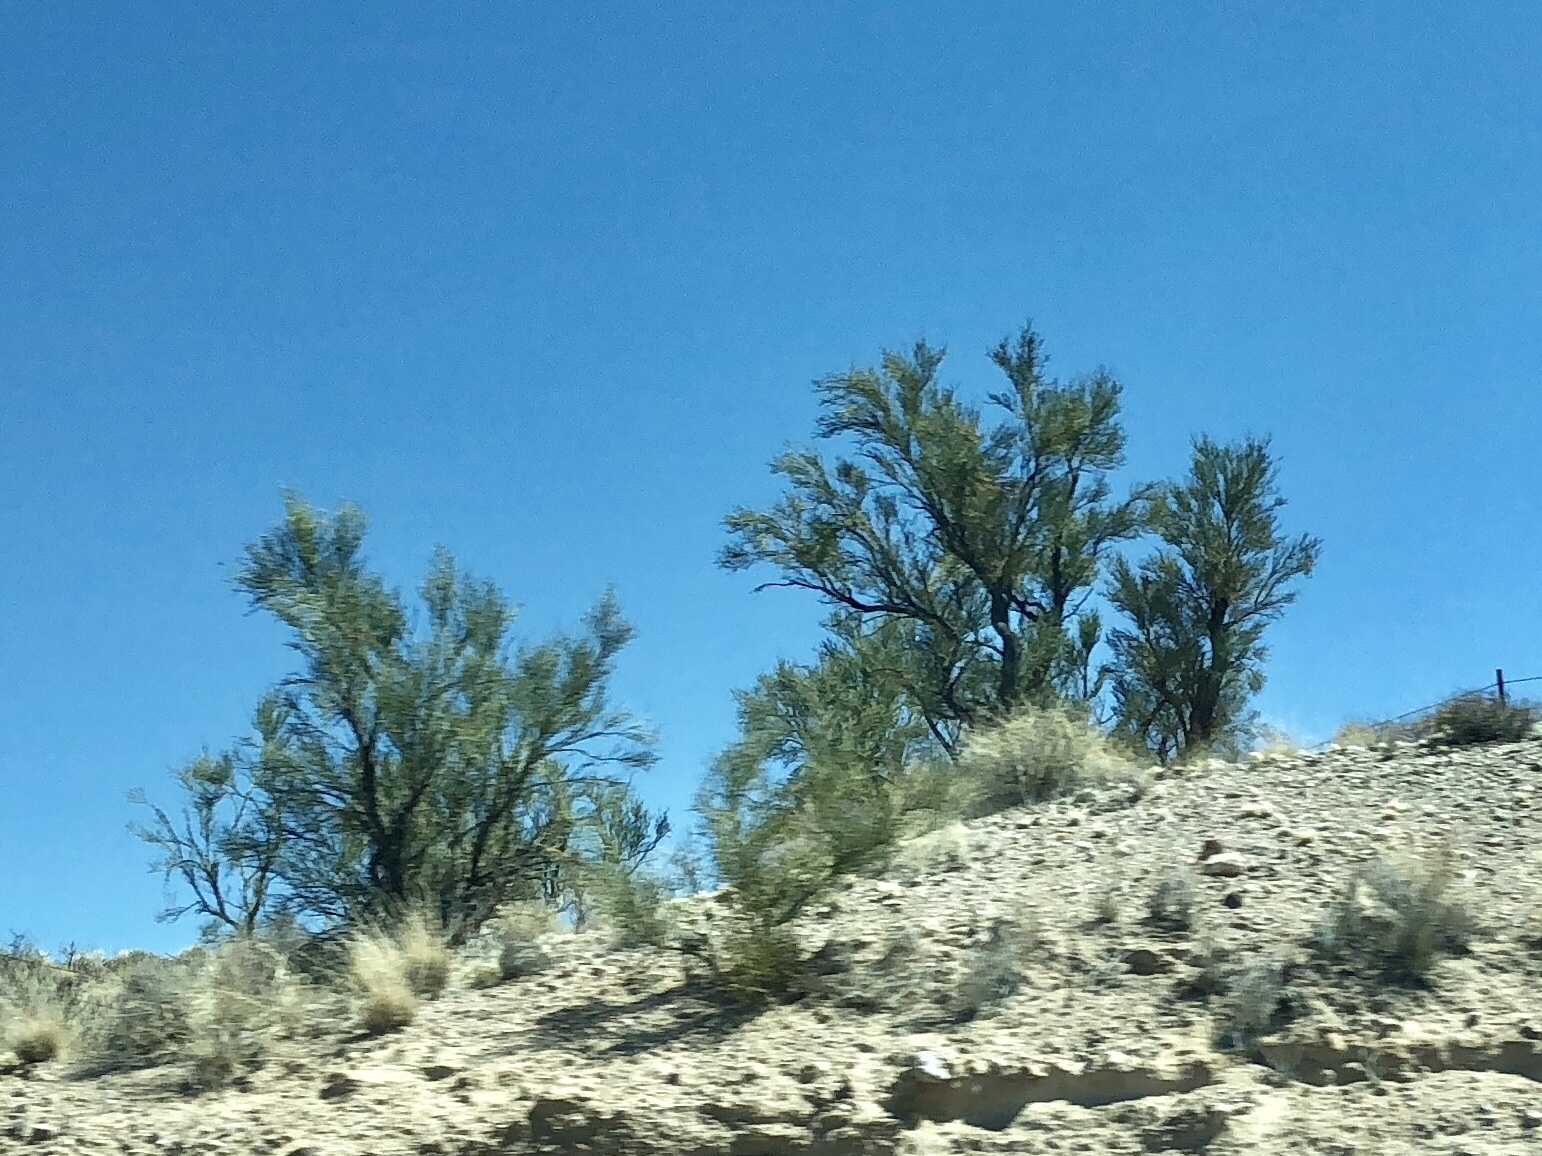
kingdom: Plantae
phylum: Tracheophyta
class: Magnoliopsida
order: Celastrales
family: Celastraceae
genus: Canotia
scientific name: Canotia holacantha
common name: Crucifixion thorns
